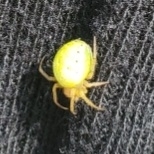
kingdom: Animalia
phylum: Arthropoda
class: Arachnida
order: Araneae
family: Araneidae
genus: Araniella
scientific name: Araniella
